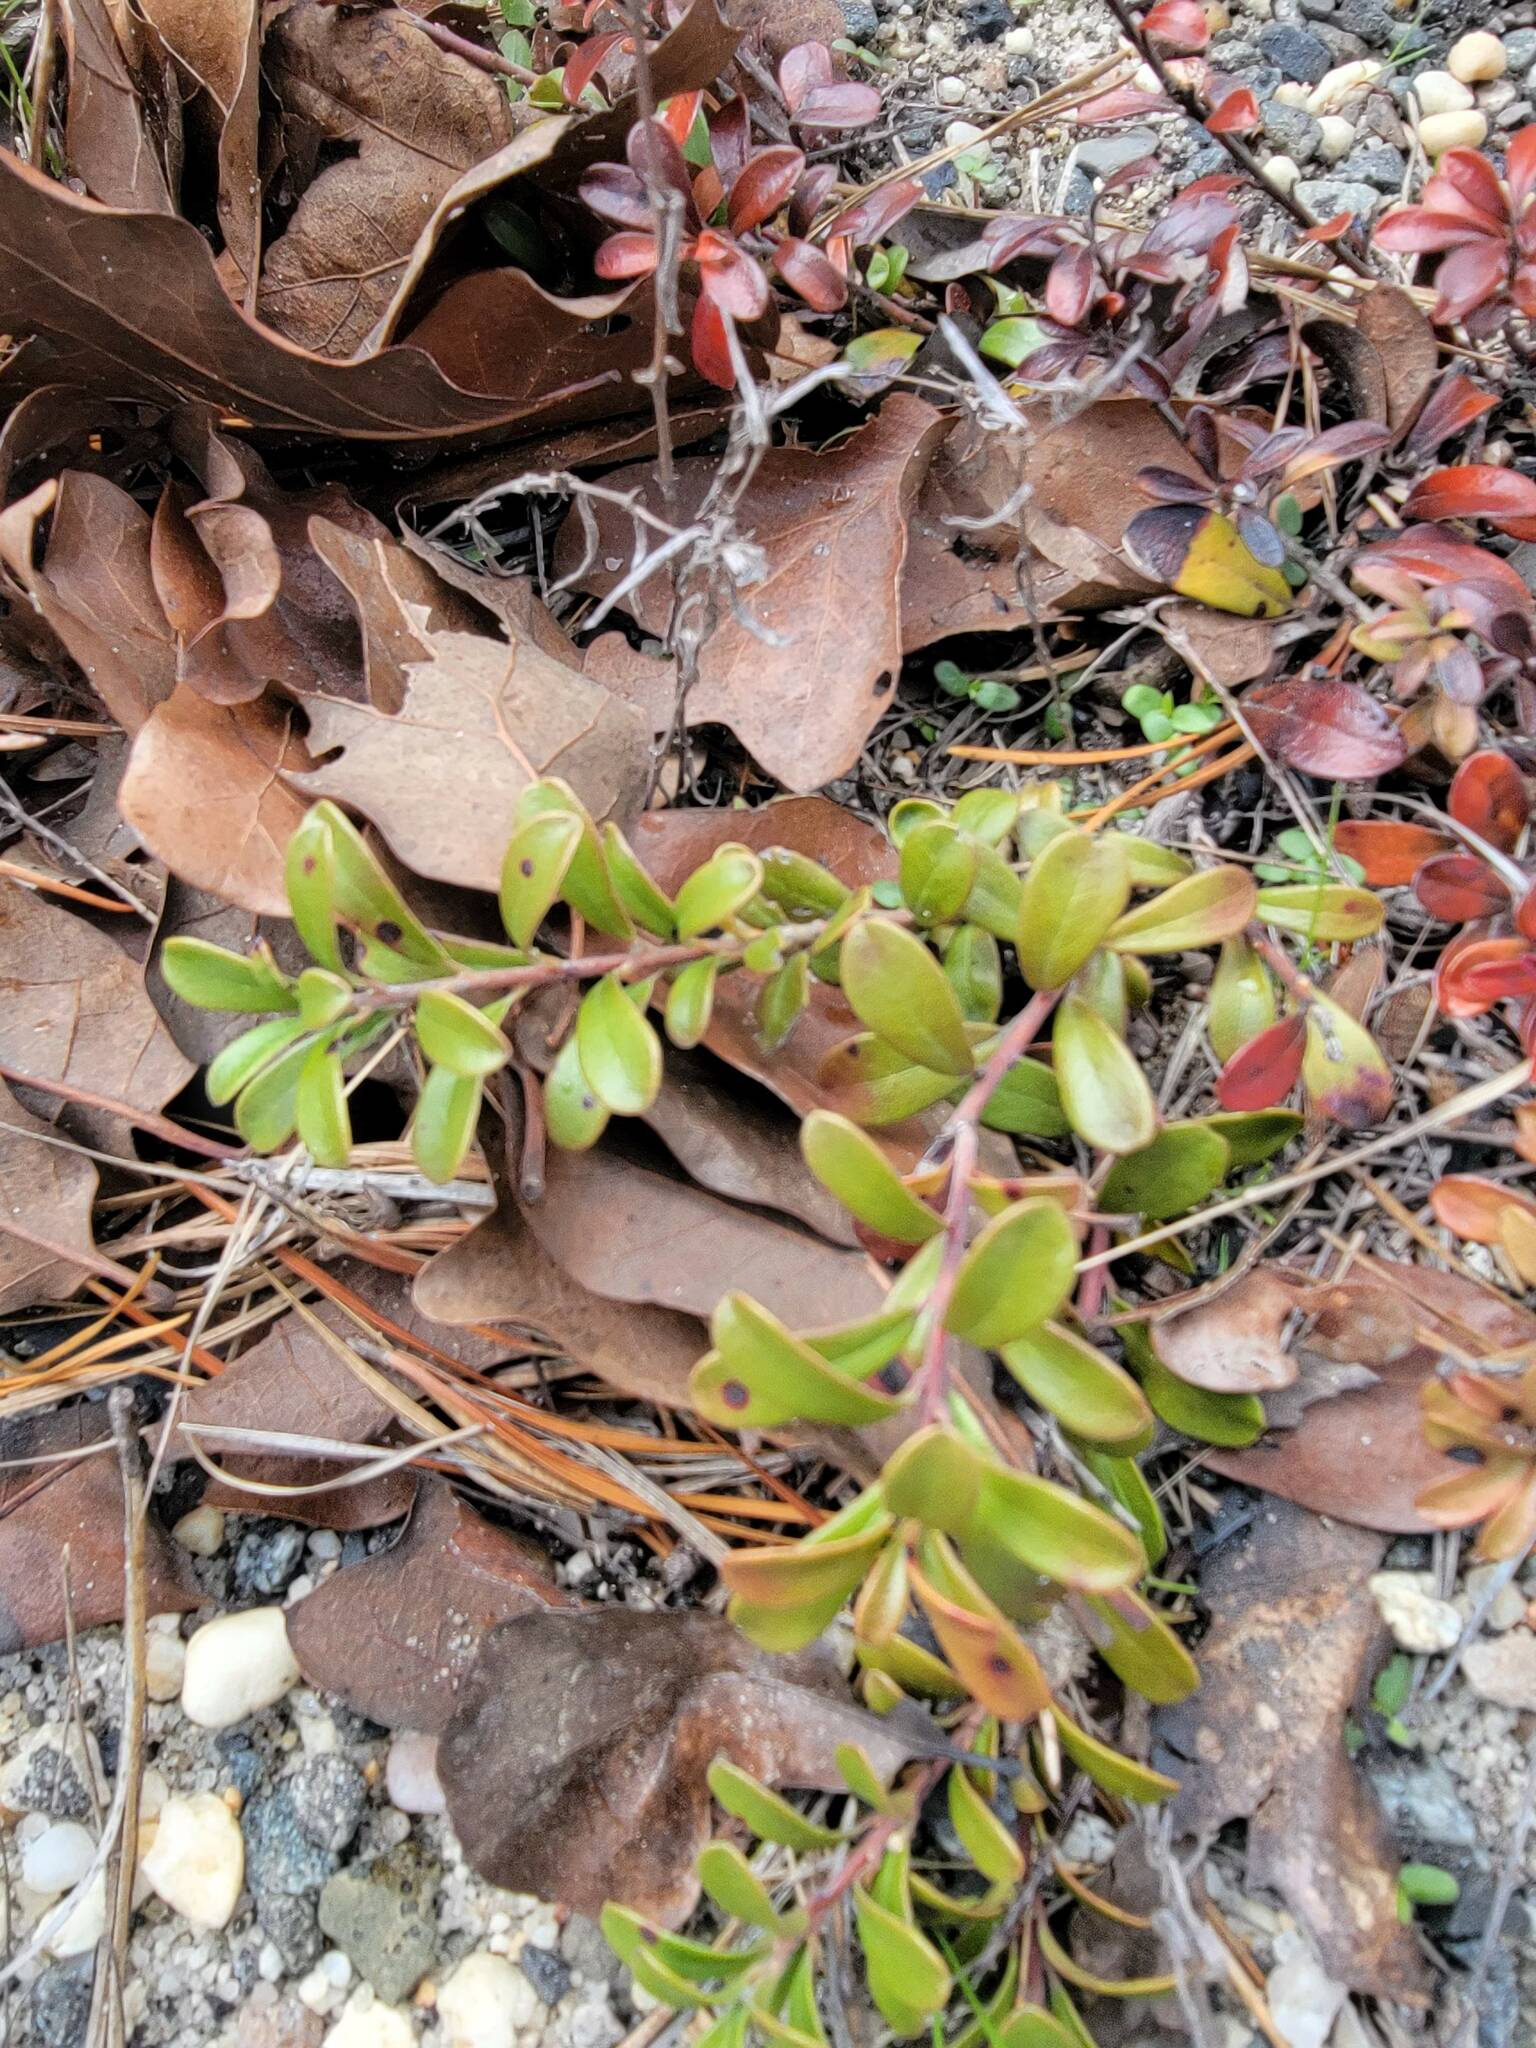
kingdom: Plantae
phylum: Tracheophyta
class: Magnoliopsida
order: Ericales
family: Ericaceae
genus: Arctostaphylos
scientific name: Arctostaphylos uva-ursi
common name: Bearberry
